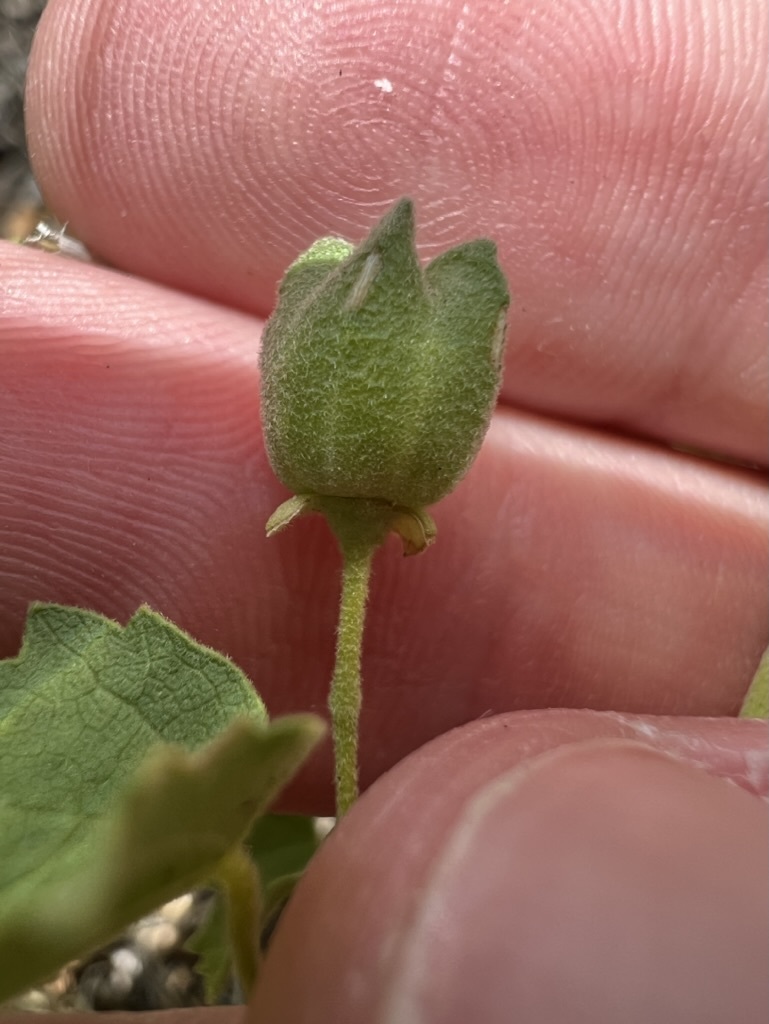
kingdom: Plantae
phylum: Tracheophyta
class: Magnoliopsida
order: Malvales
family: Malvaceae
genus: Abutilon
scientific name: Abutilon parvulum
